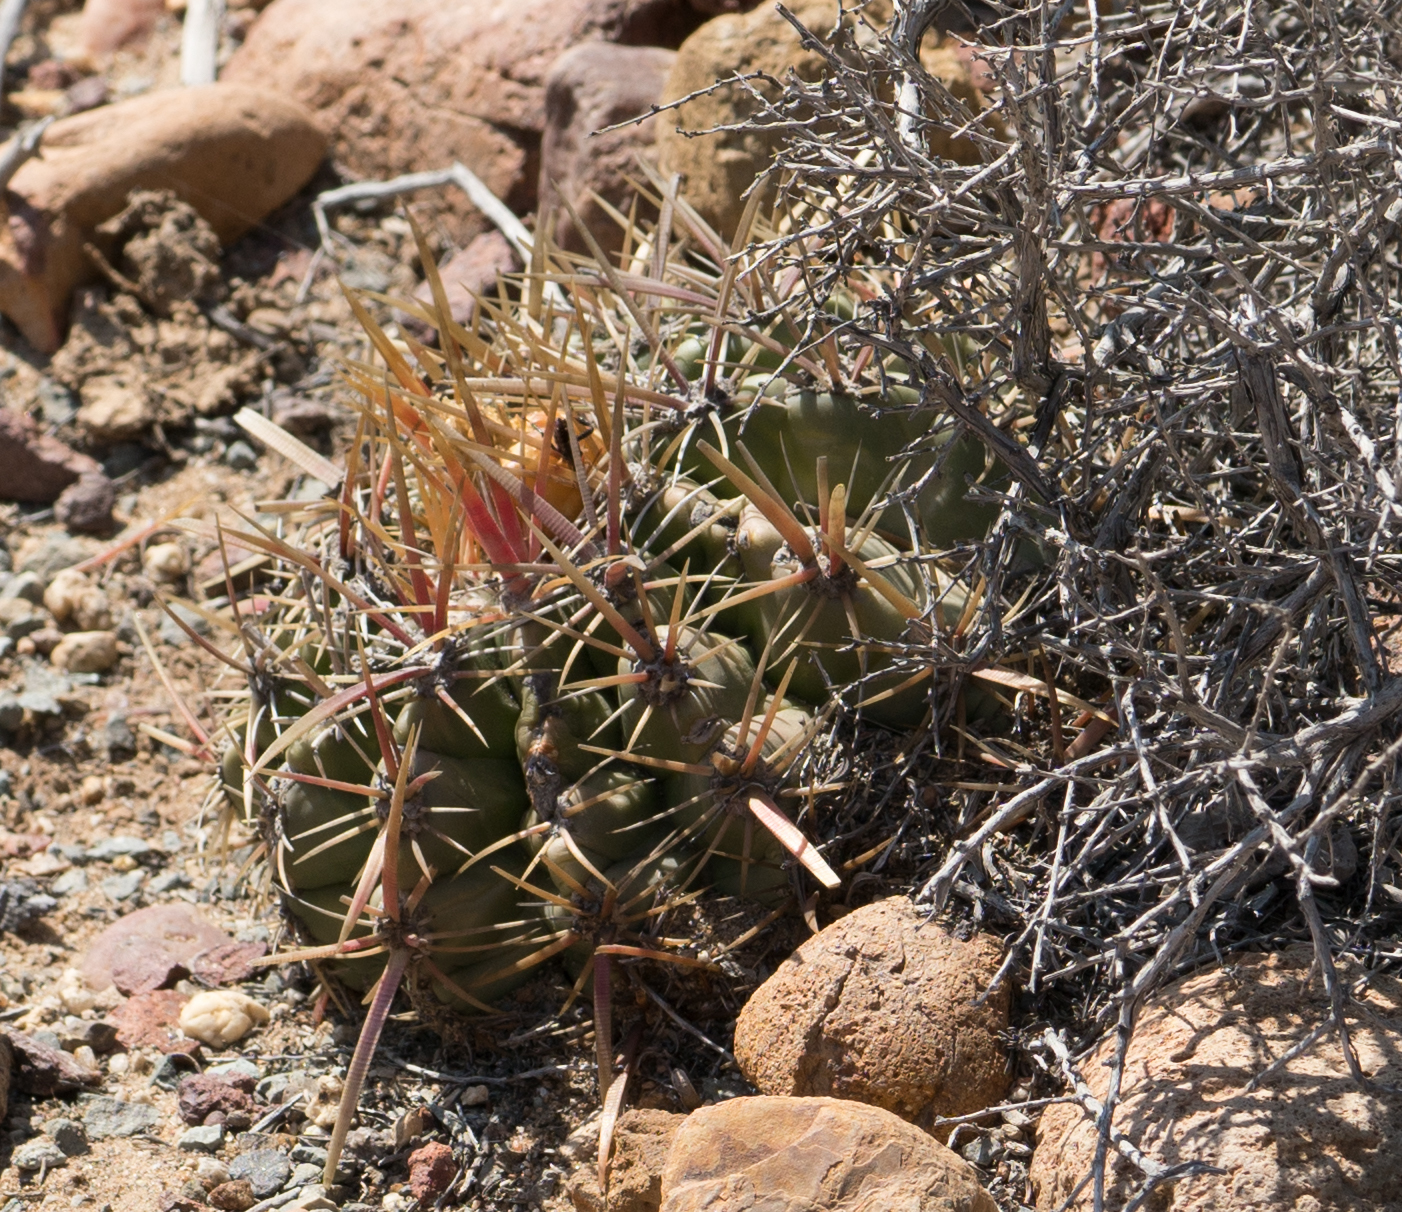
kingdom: Plantae
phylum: Tracheophyta
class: Magnoliopsida
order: Caryophyllales
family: Cactaceae
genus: Ferocactus
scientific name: Ferocactus viridescens
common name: San diego barrel cactus
